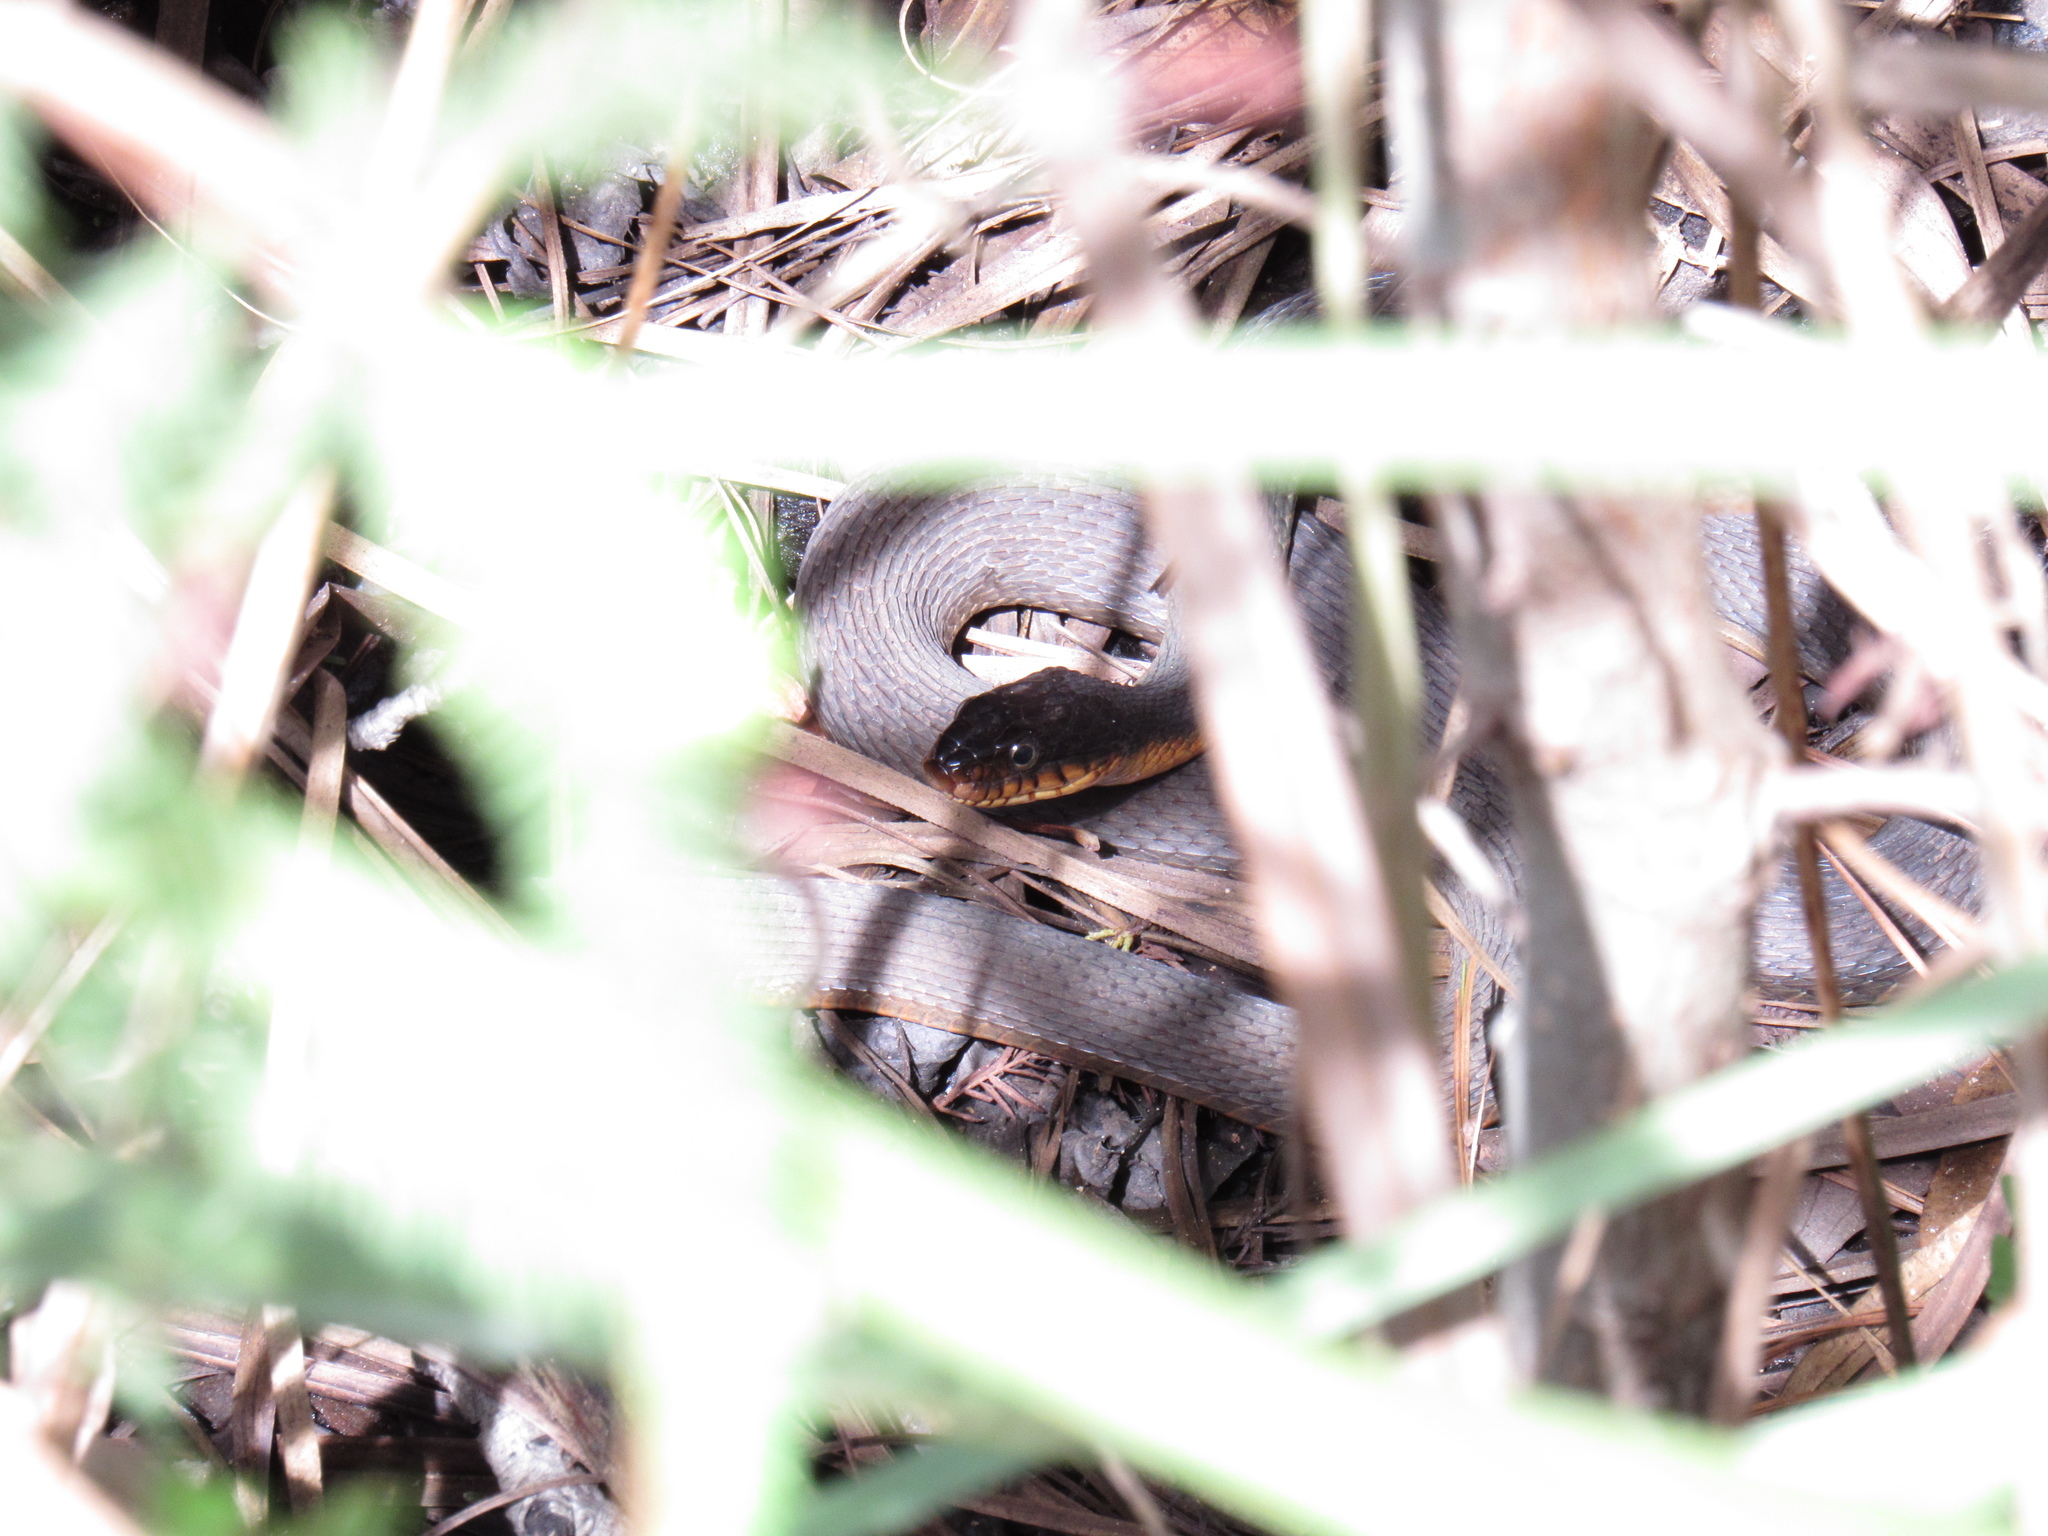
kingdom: Animalia
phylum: Chordata
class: Squamata
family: Colubridae
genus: Nerodia
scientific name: Nerodia erythrogaster
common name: Plainbelly water snake
